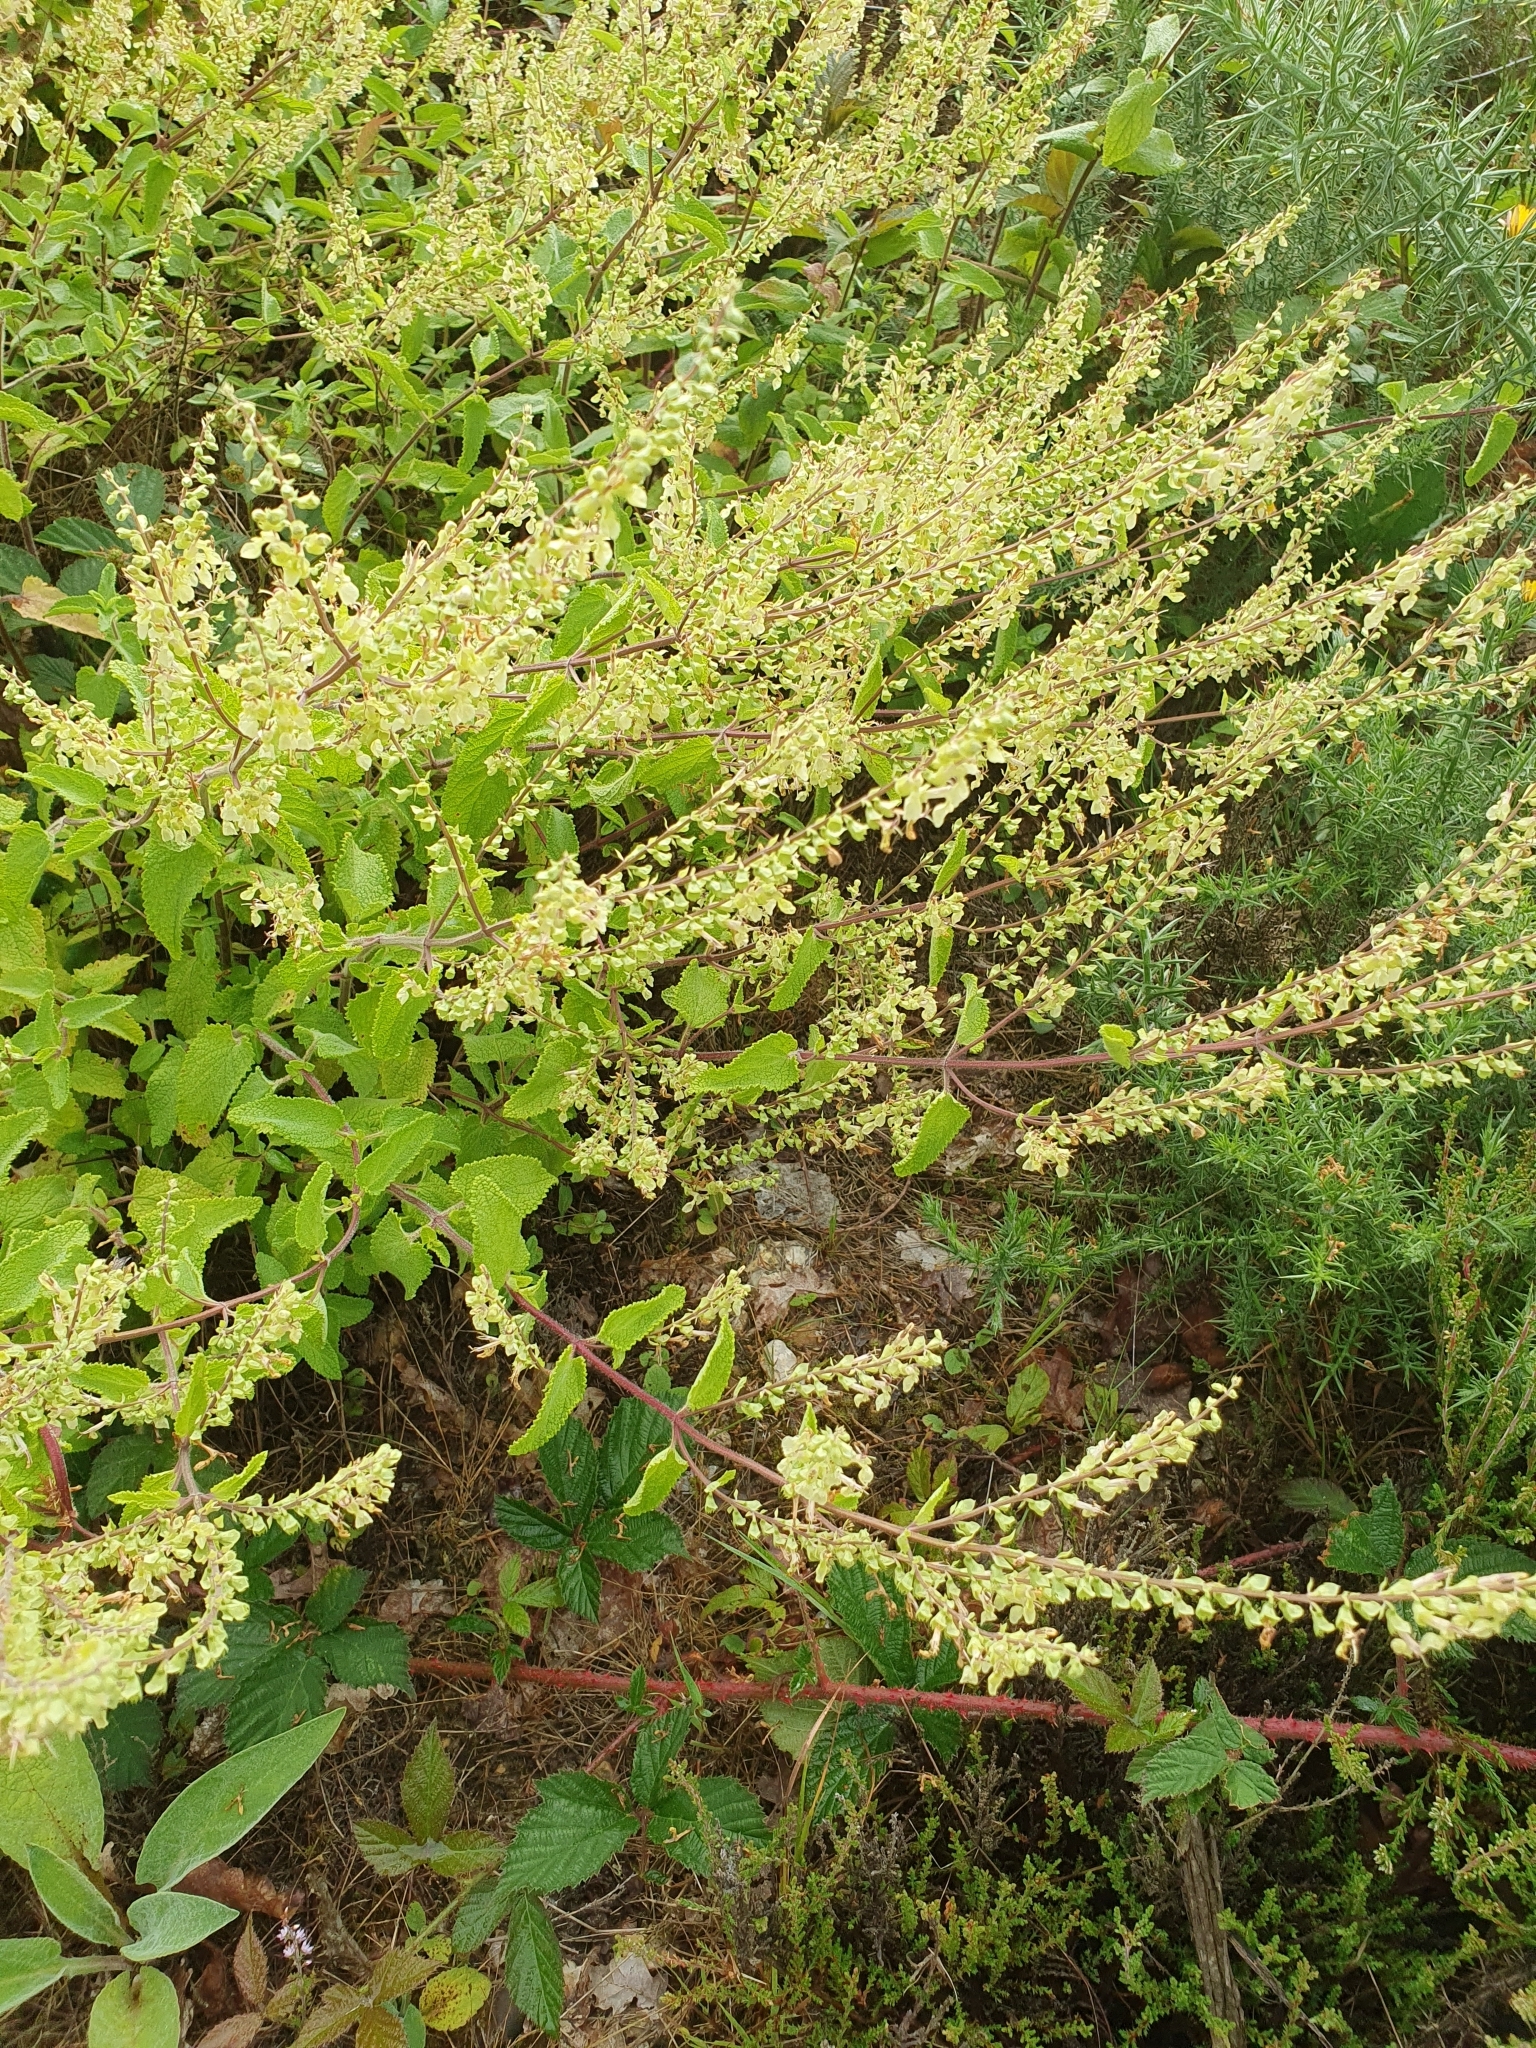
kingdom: Plantae
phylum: Tracheophyta
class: Magnoliopsida
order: Lamiales
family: Lamiaceae
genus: Teucrium
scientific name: Teucrium scorodonia
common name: Woodland germander
